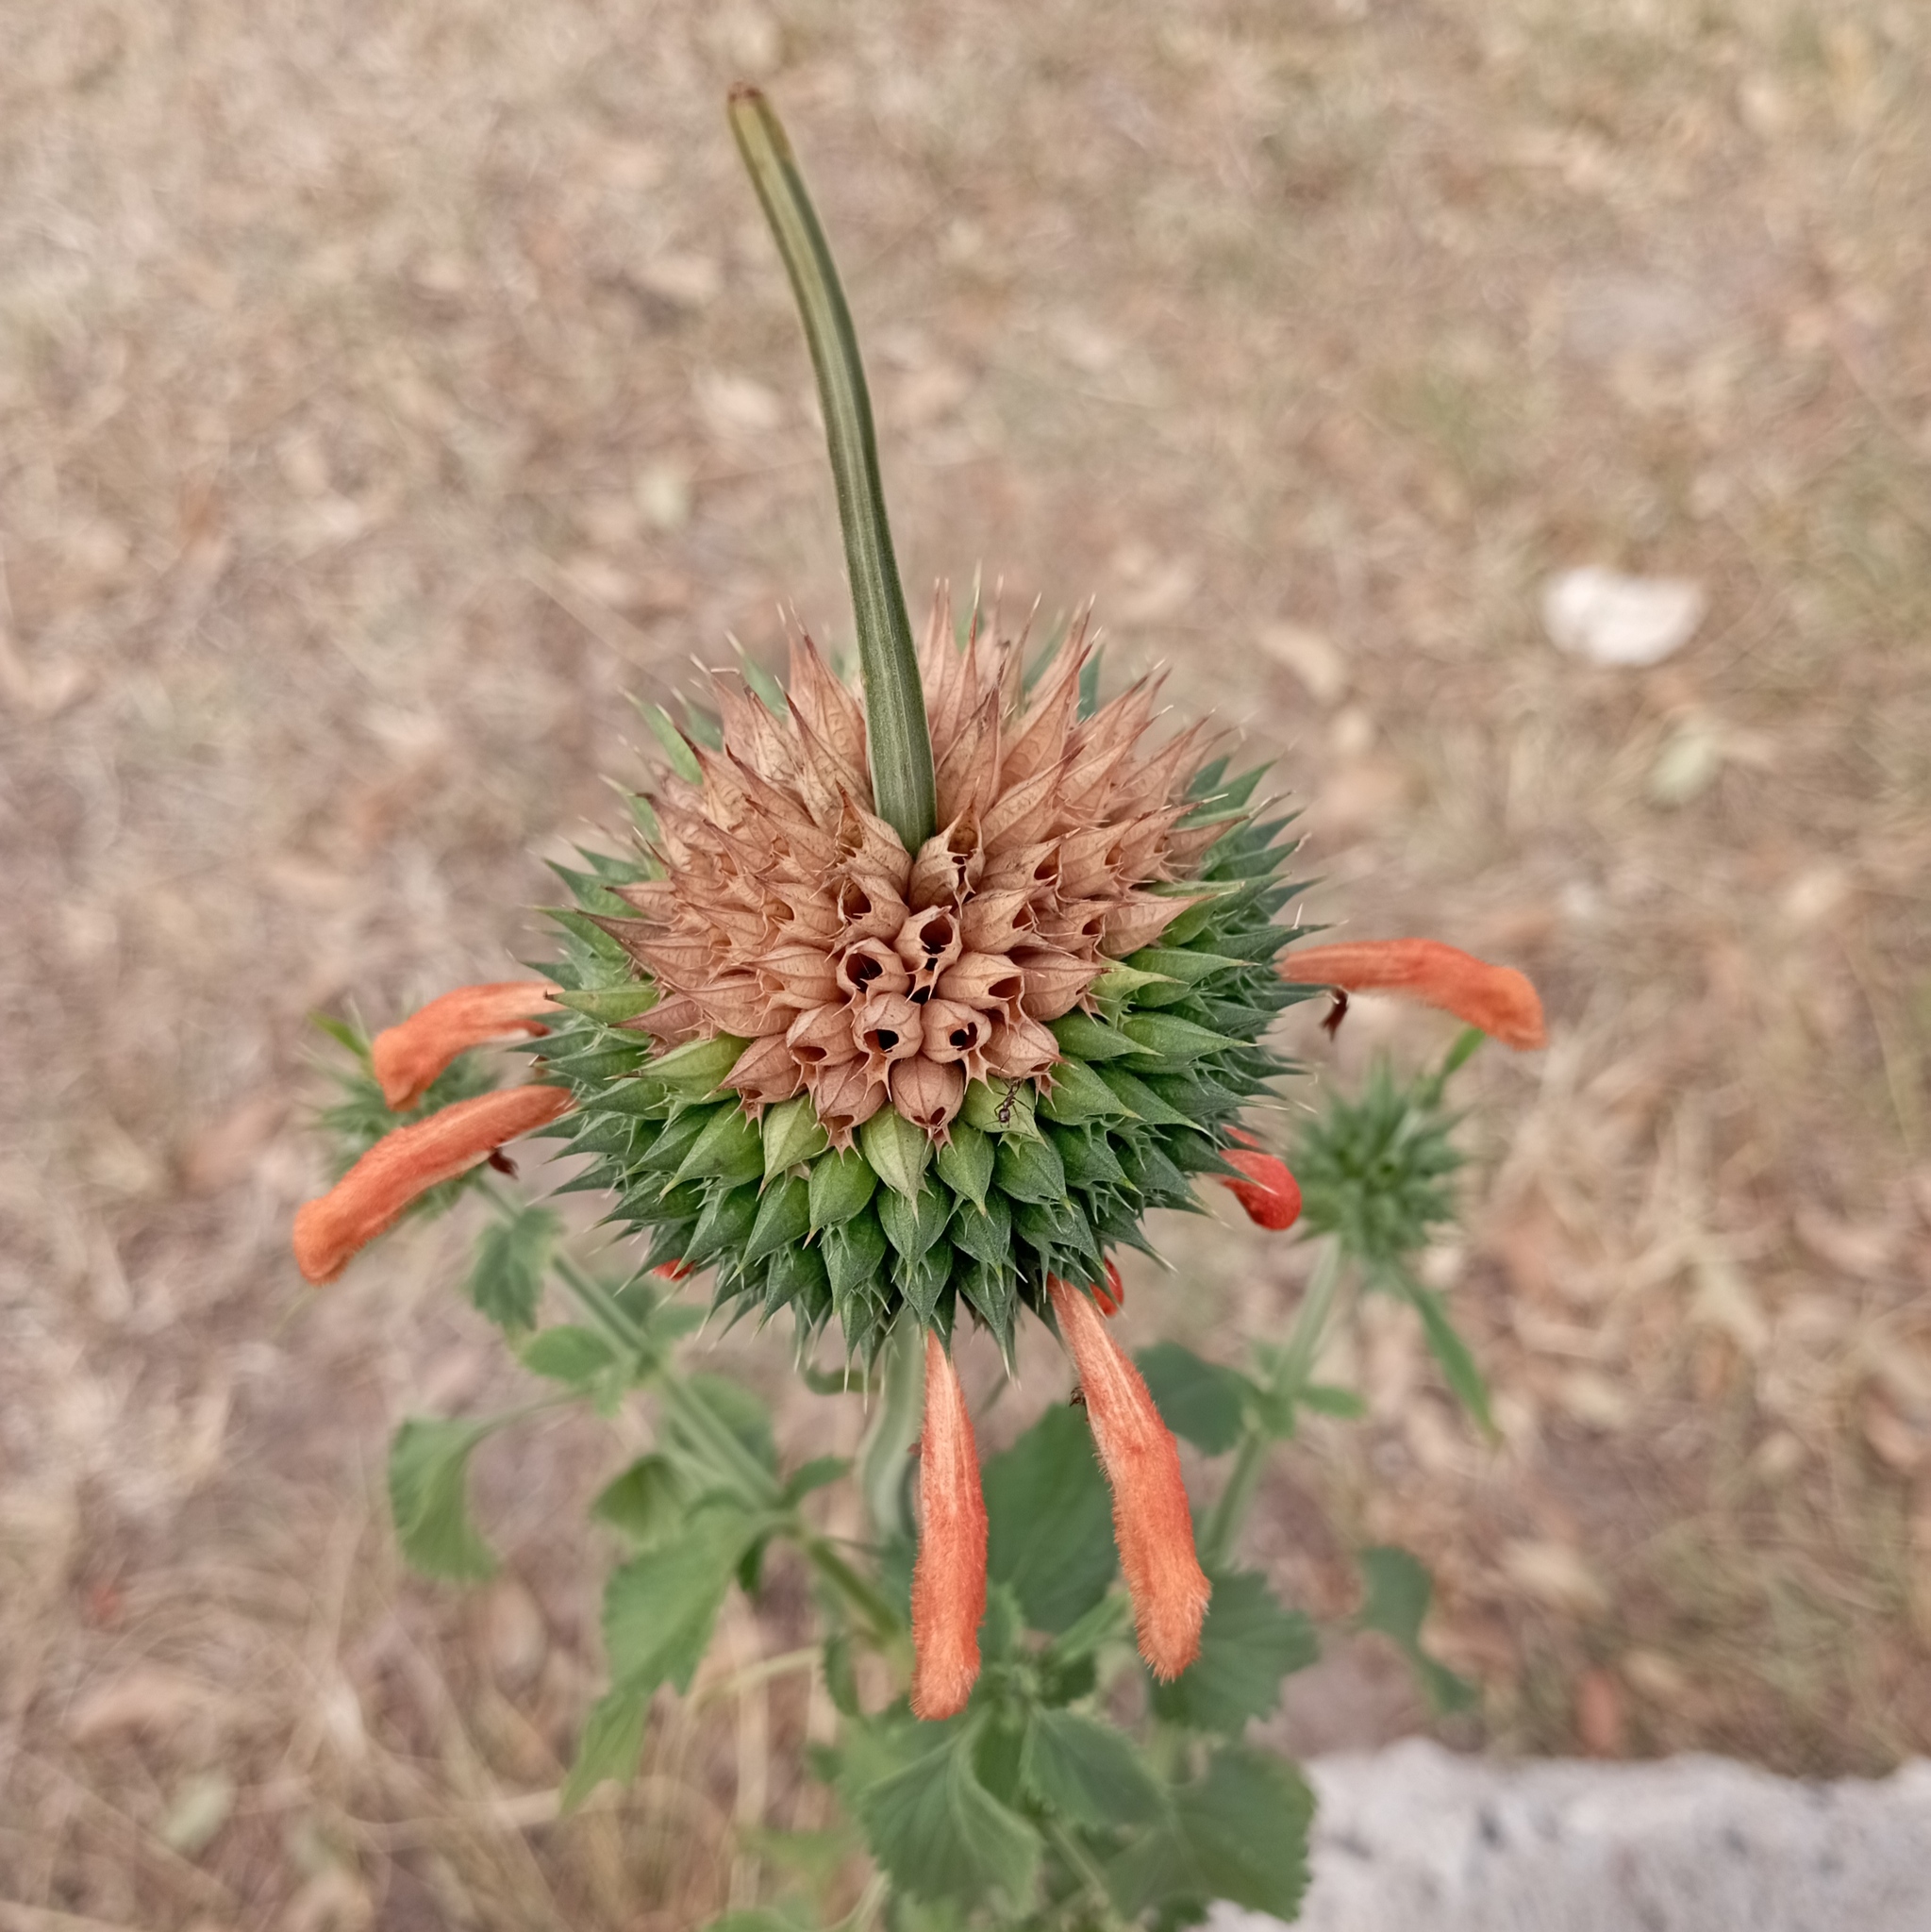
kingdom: Plantae
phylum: Tracheophyta
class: Magnoliopsida
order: Lamiales
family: Lamiaceae
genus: Leonotis
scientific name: Leonotis nepetifolia
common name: Christmas candlestick
